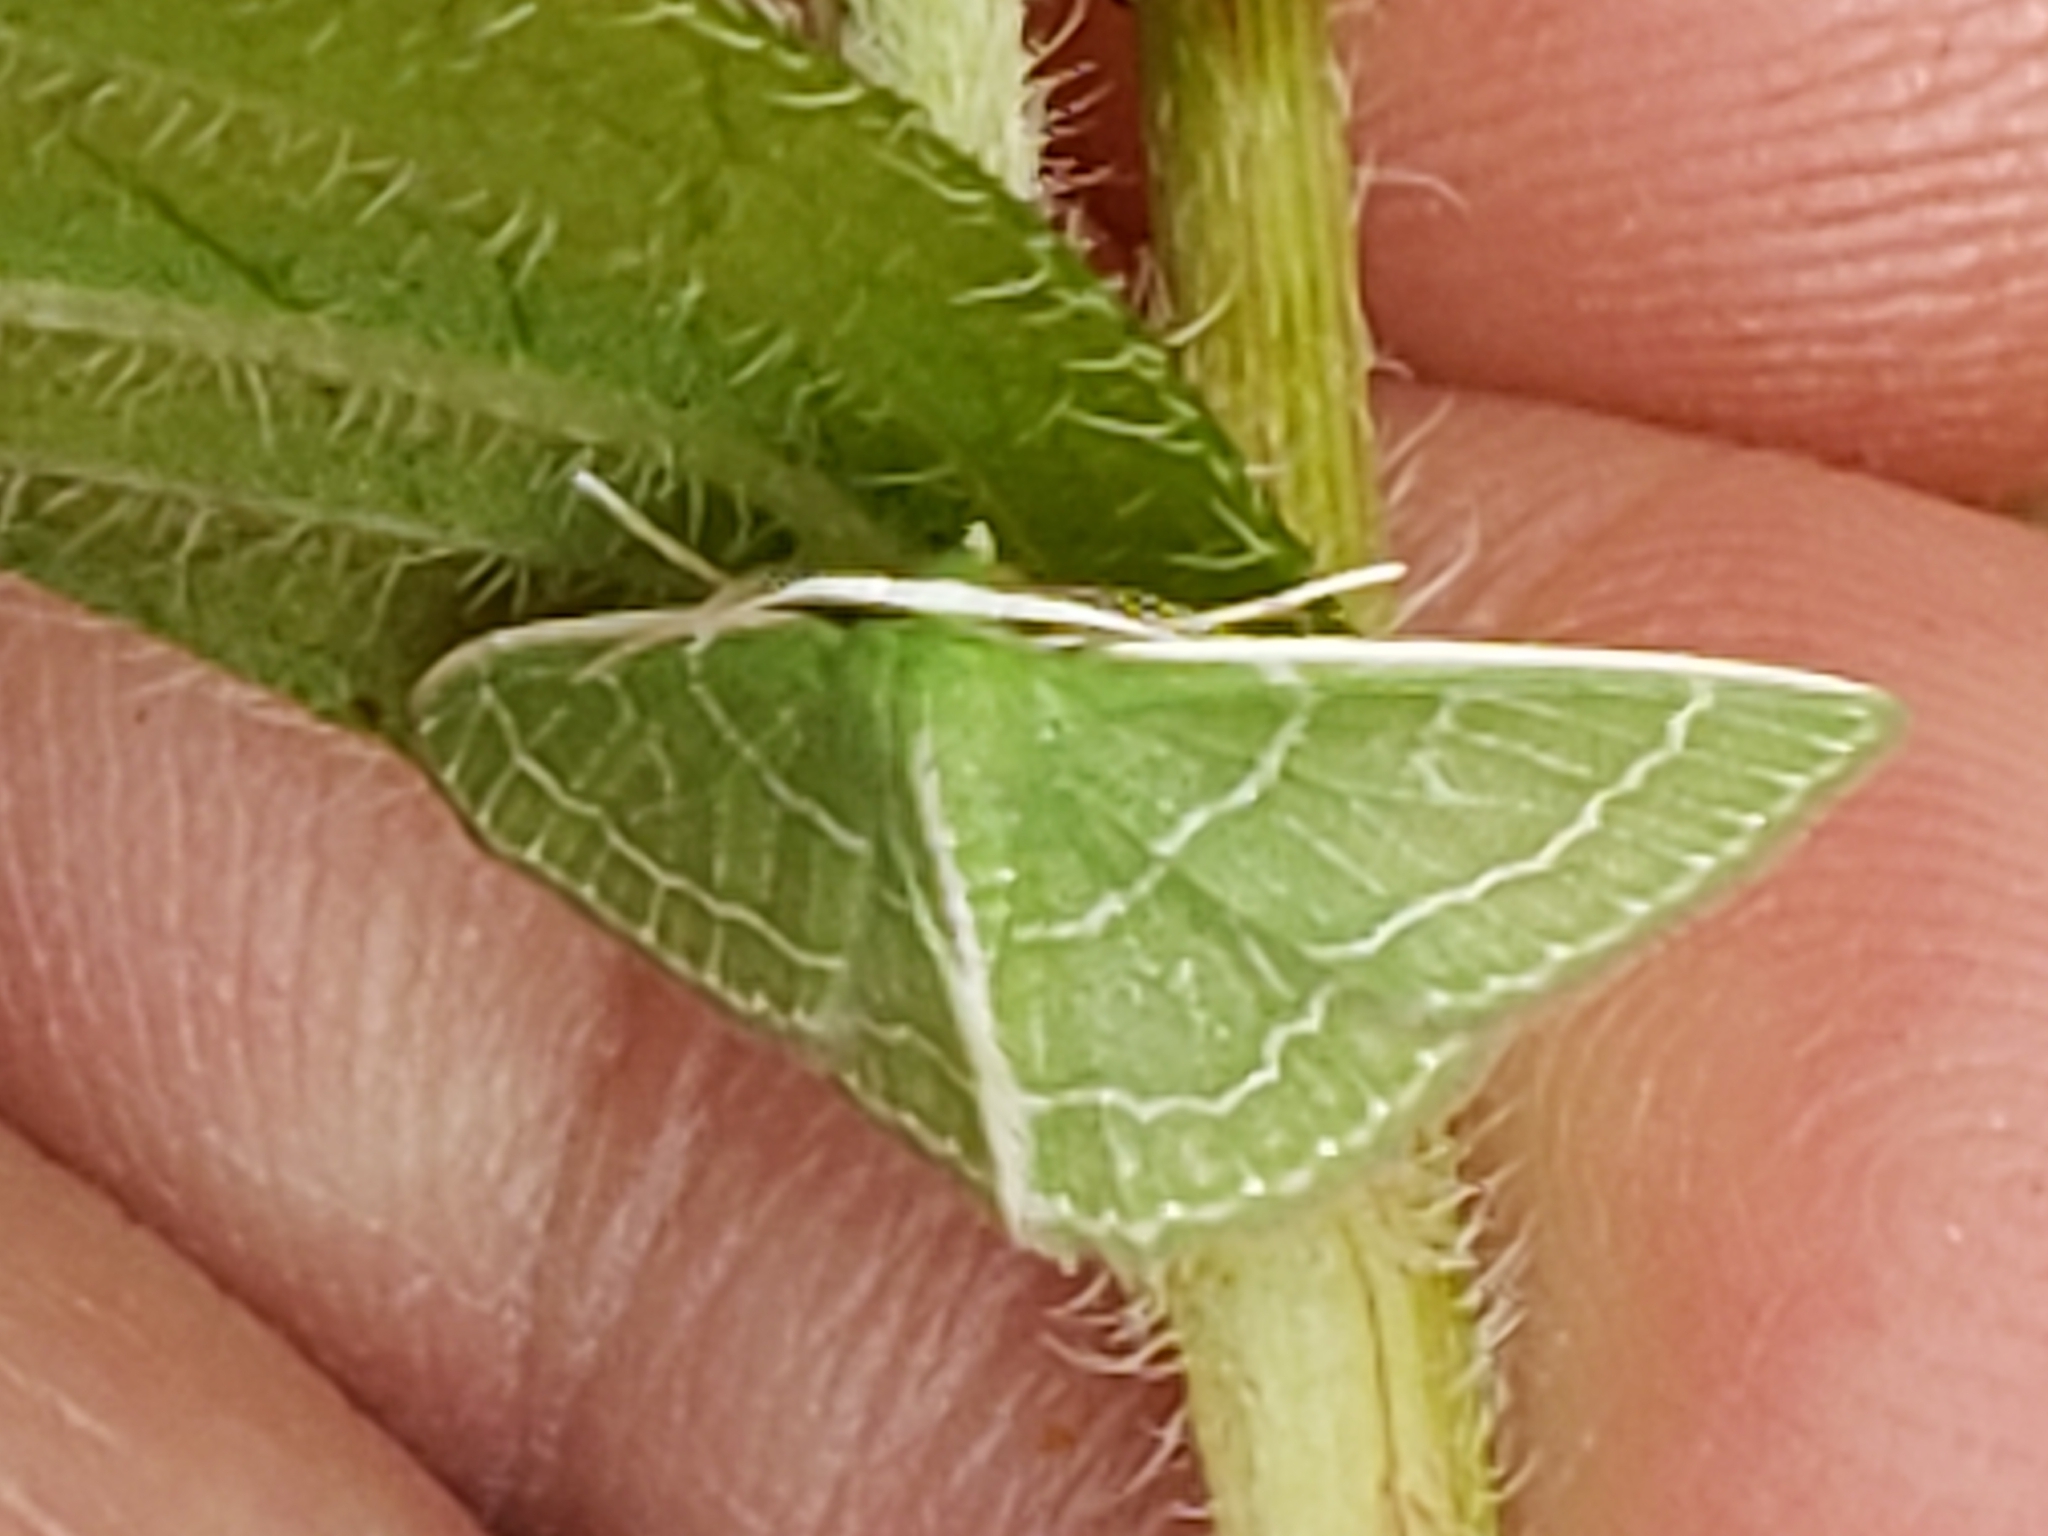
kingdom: Animalia
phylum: Arthropoda
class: Insecta
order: Lepidoptera
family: Geometridae
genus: Synchlora
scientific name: Synchlora aerata
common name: Wavy-lined emerald
